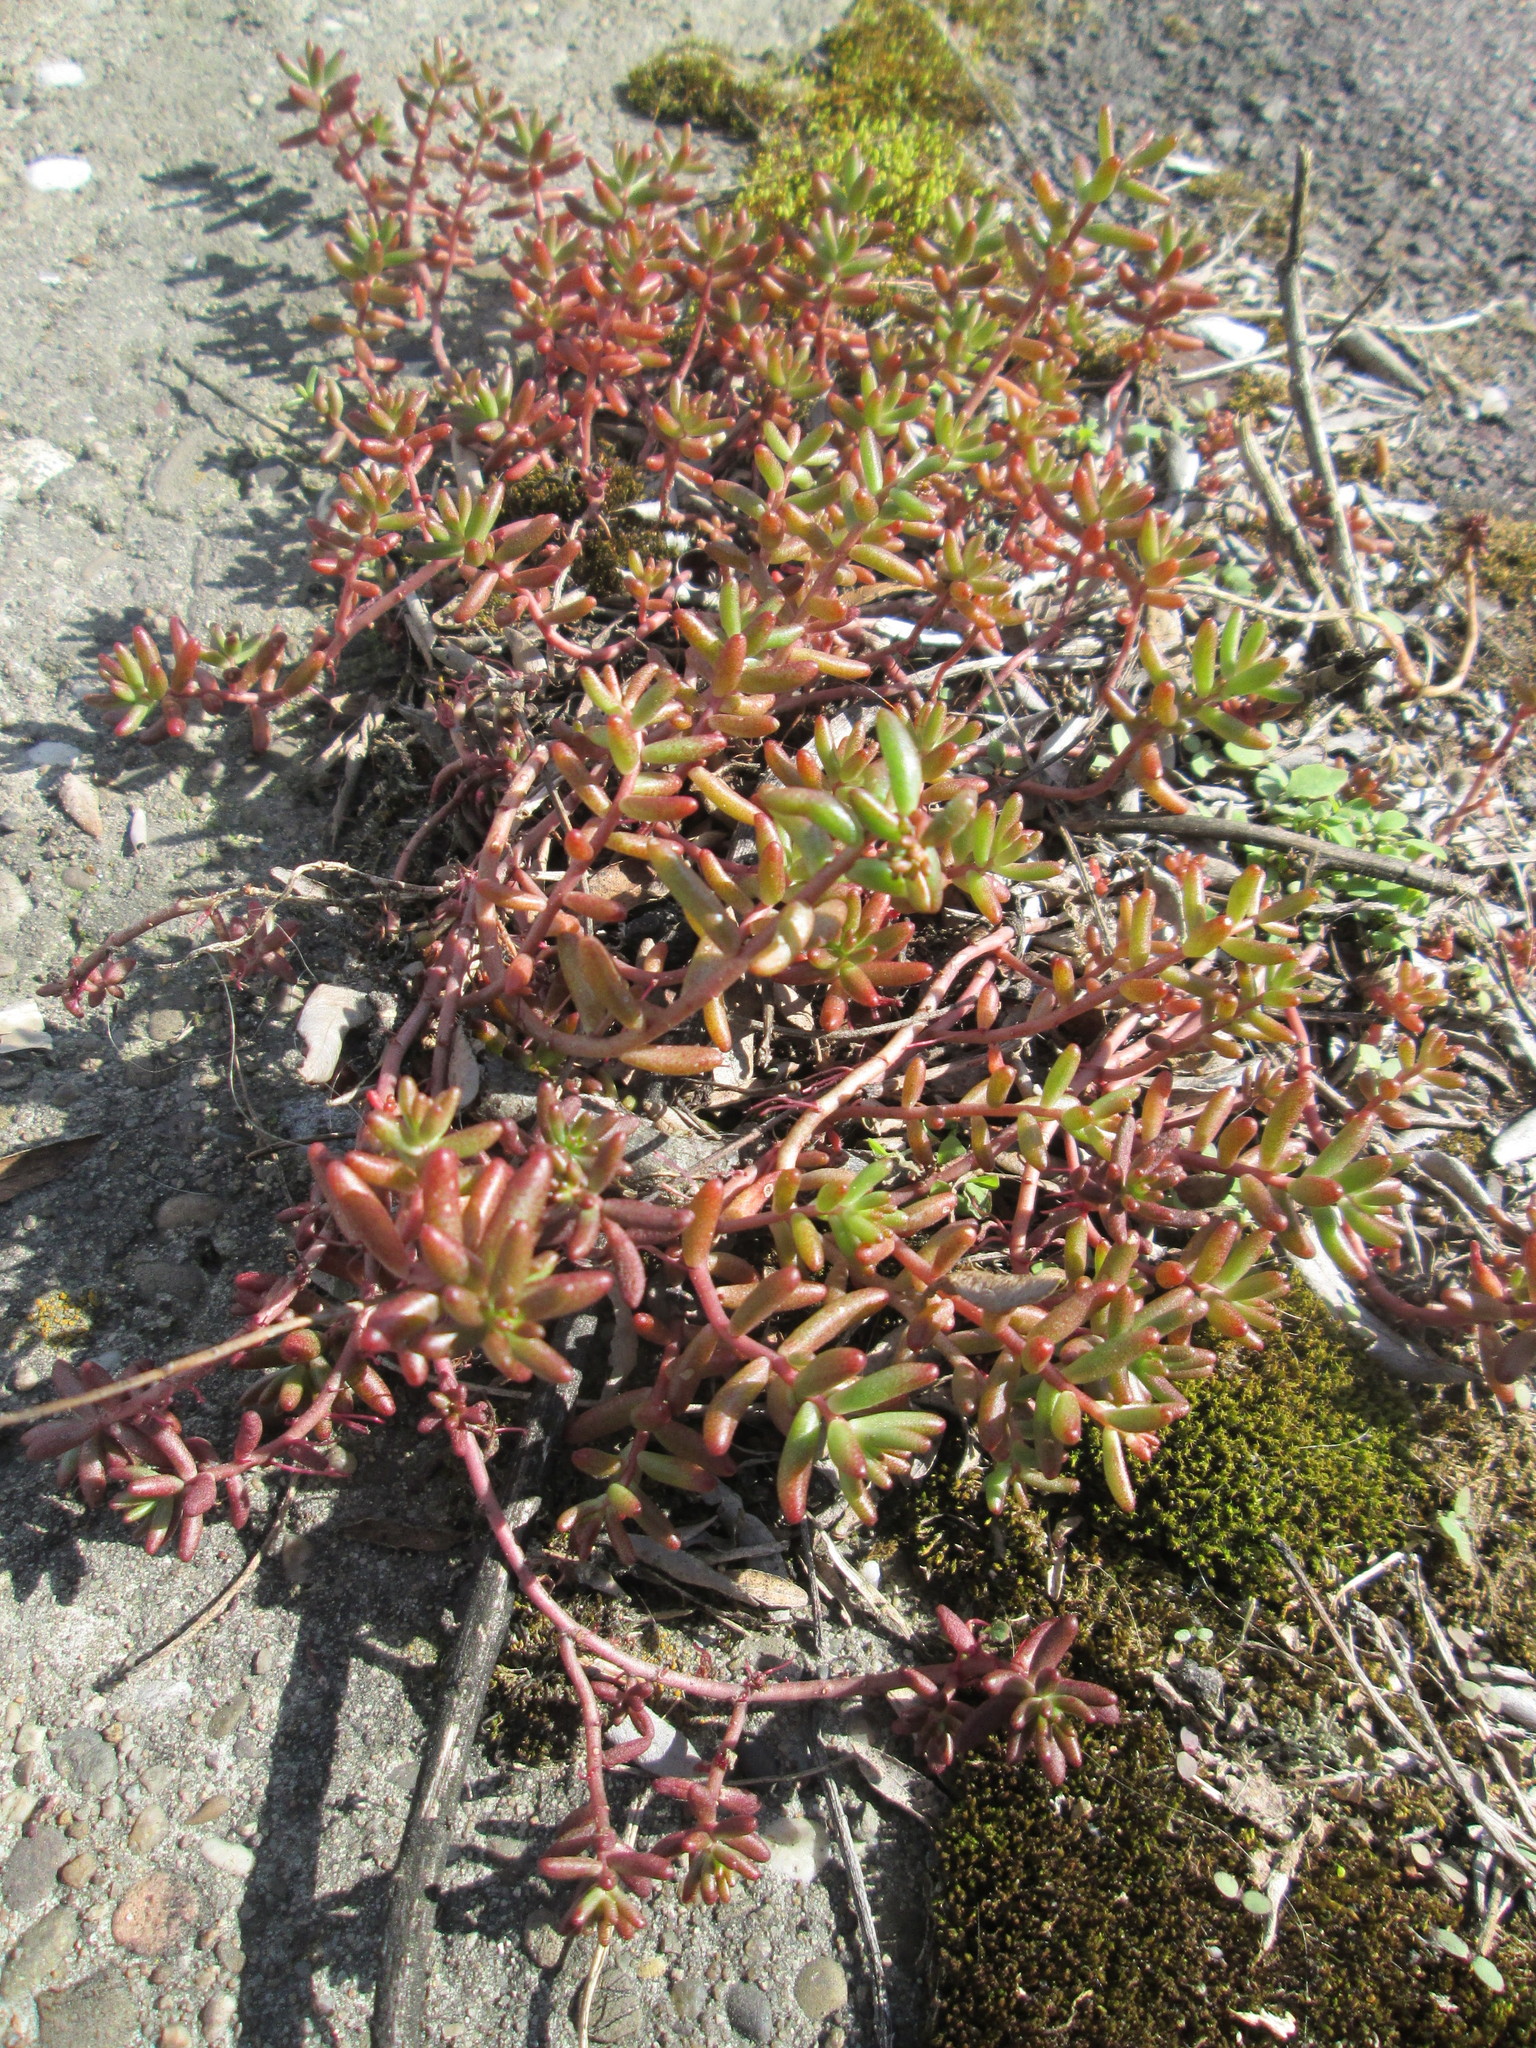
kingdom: Plantae
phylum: Tracheophyta
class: Magnoliopsida
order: Saxifragales
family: Crassulaceae
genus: Sedum
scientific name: Sedum album
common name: White stonecrop
